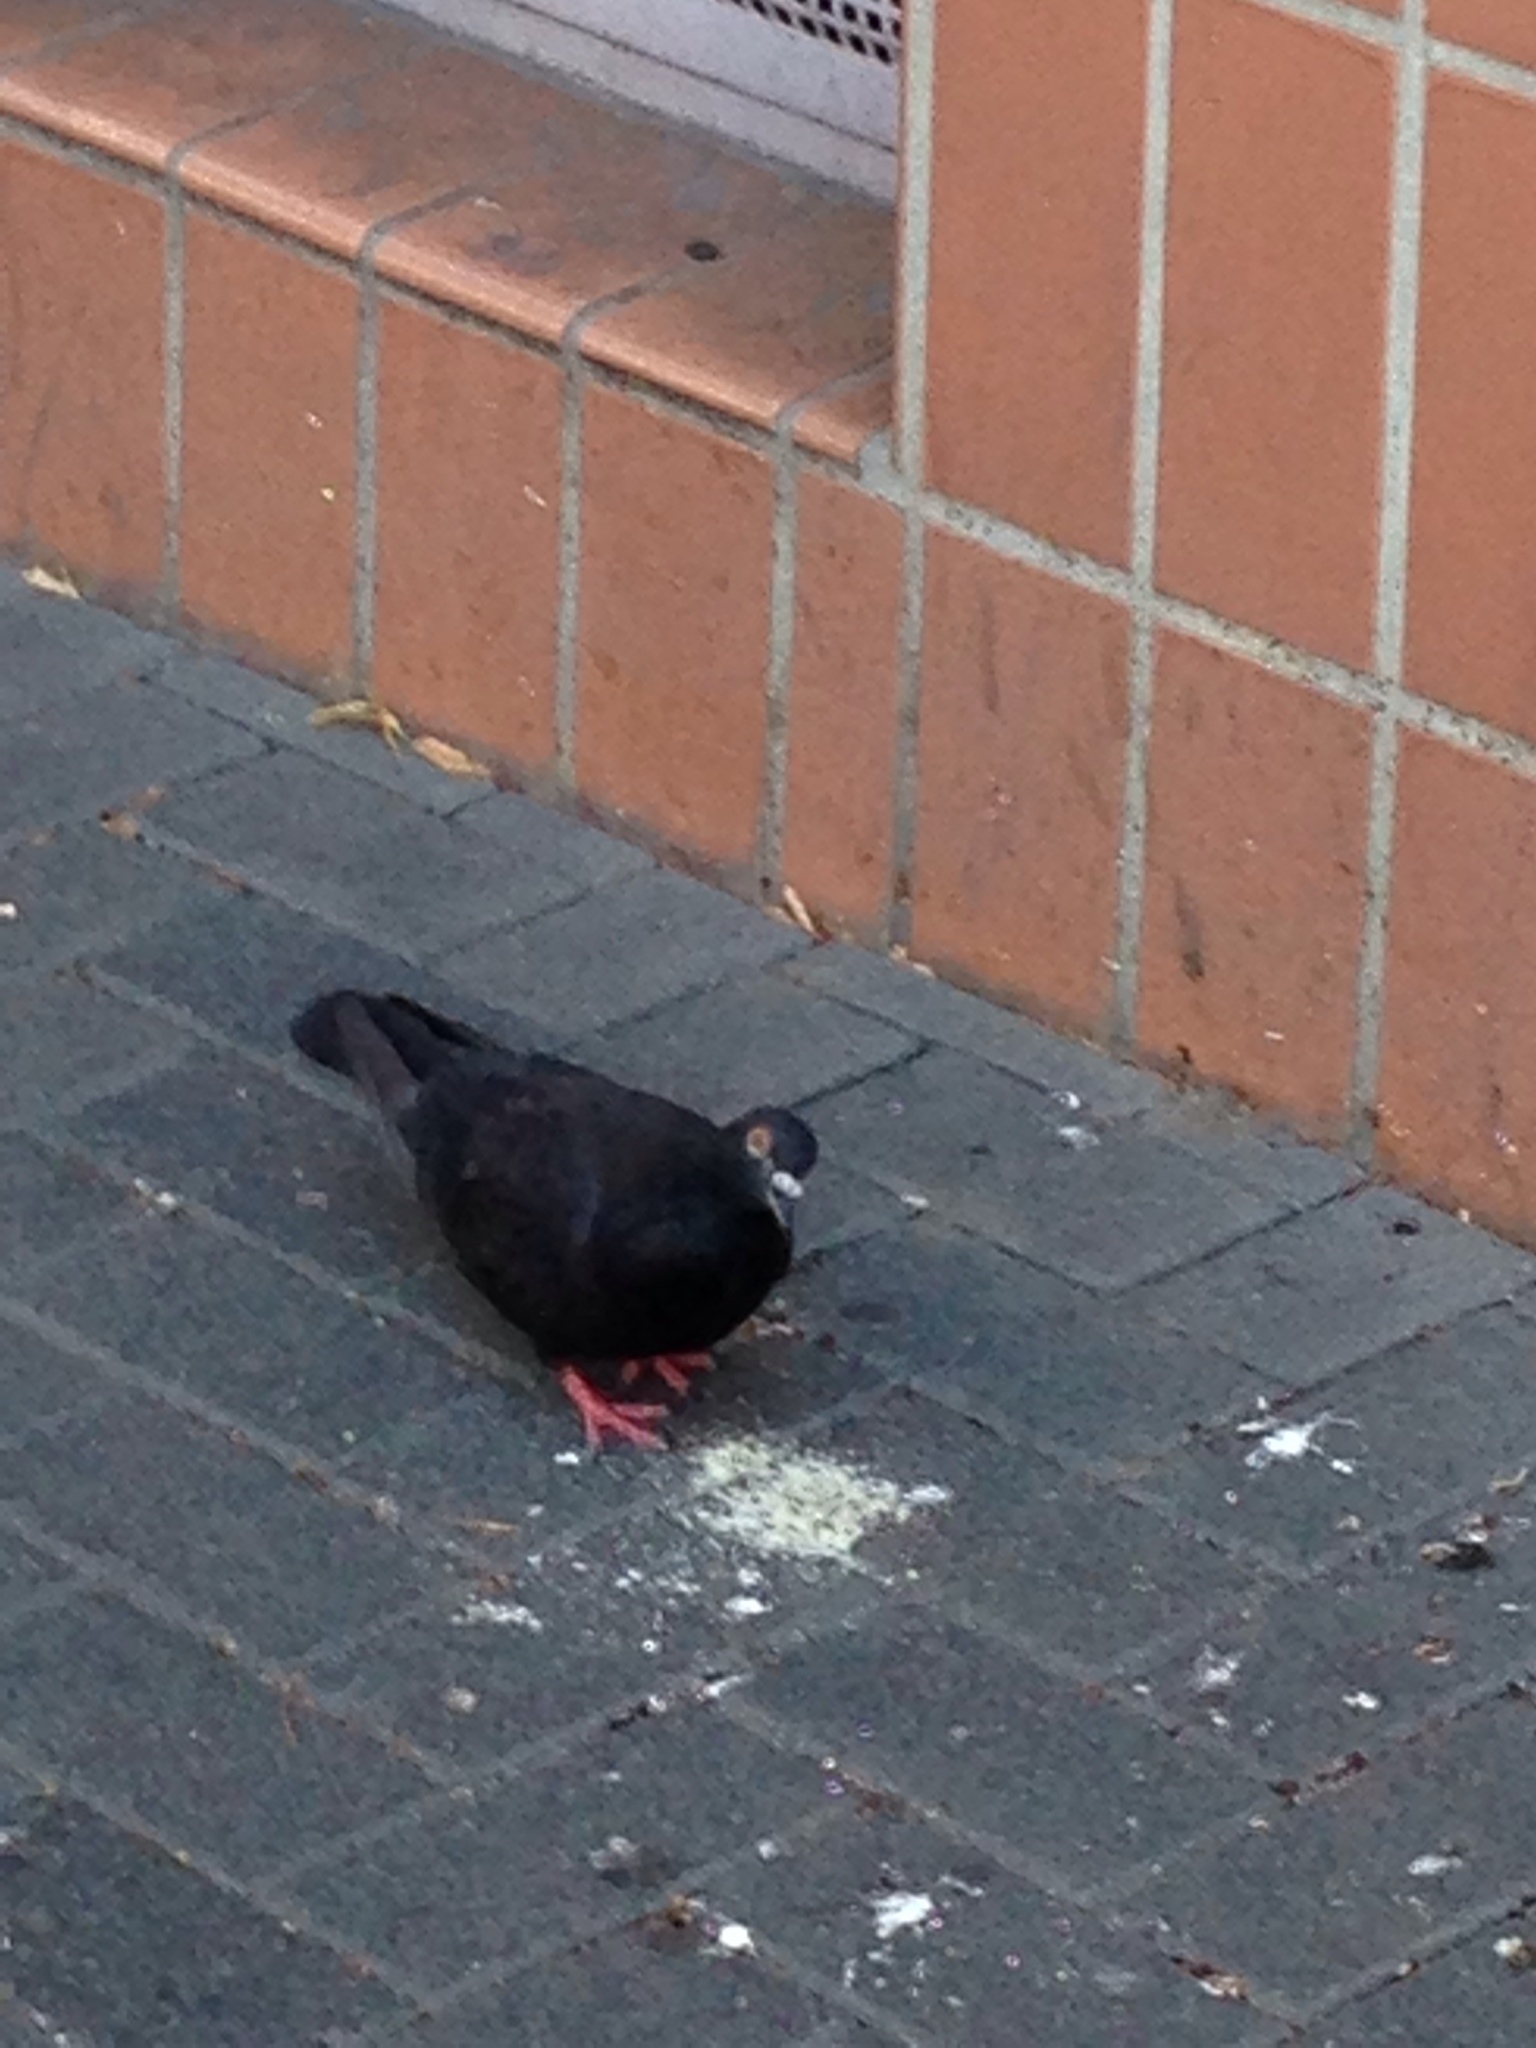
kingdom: Animalia
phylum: Chordata
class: Aves
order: Columbiformes
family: Columbidae
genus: Columba
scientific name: Columba livia
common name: Rock pigeon
